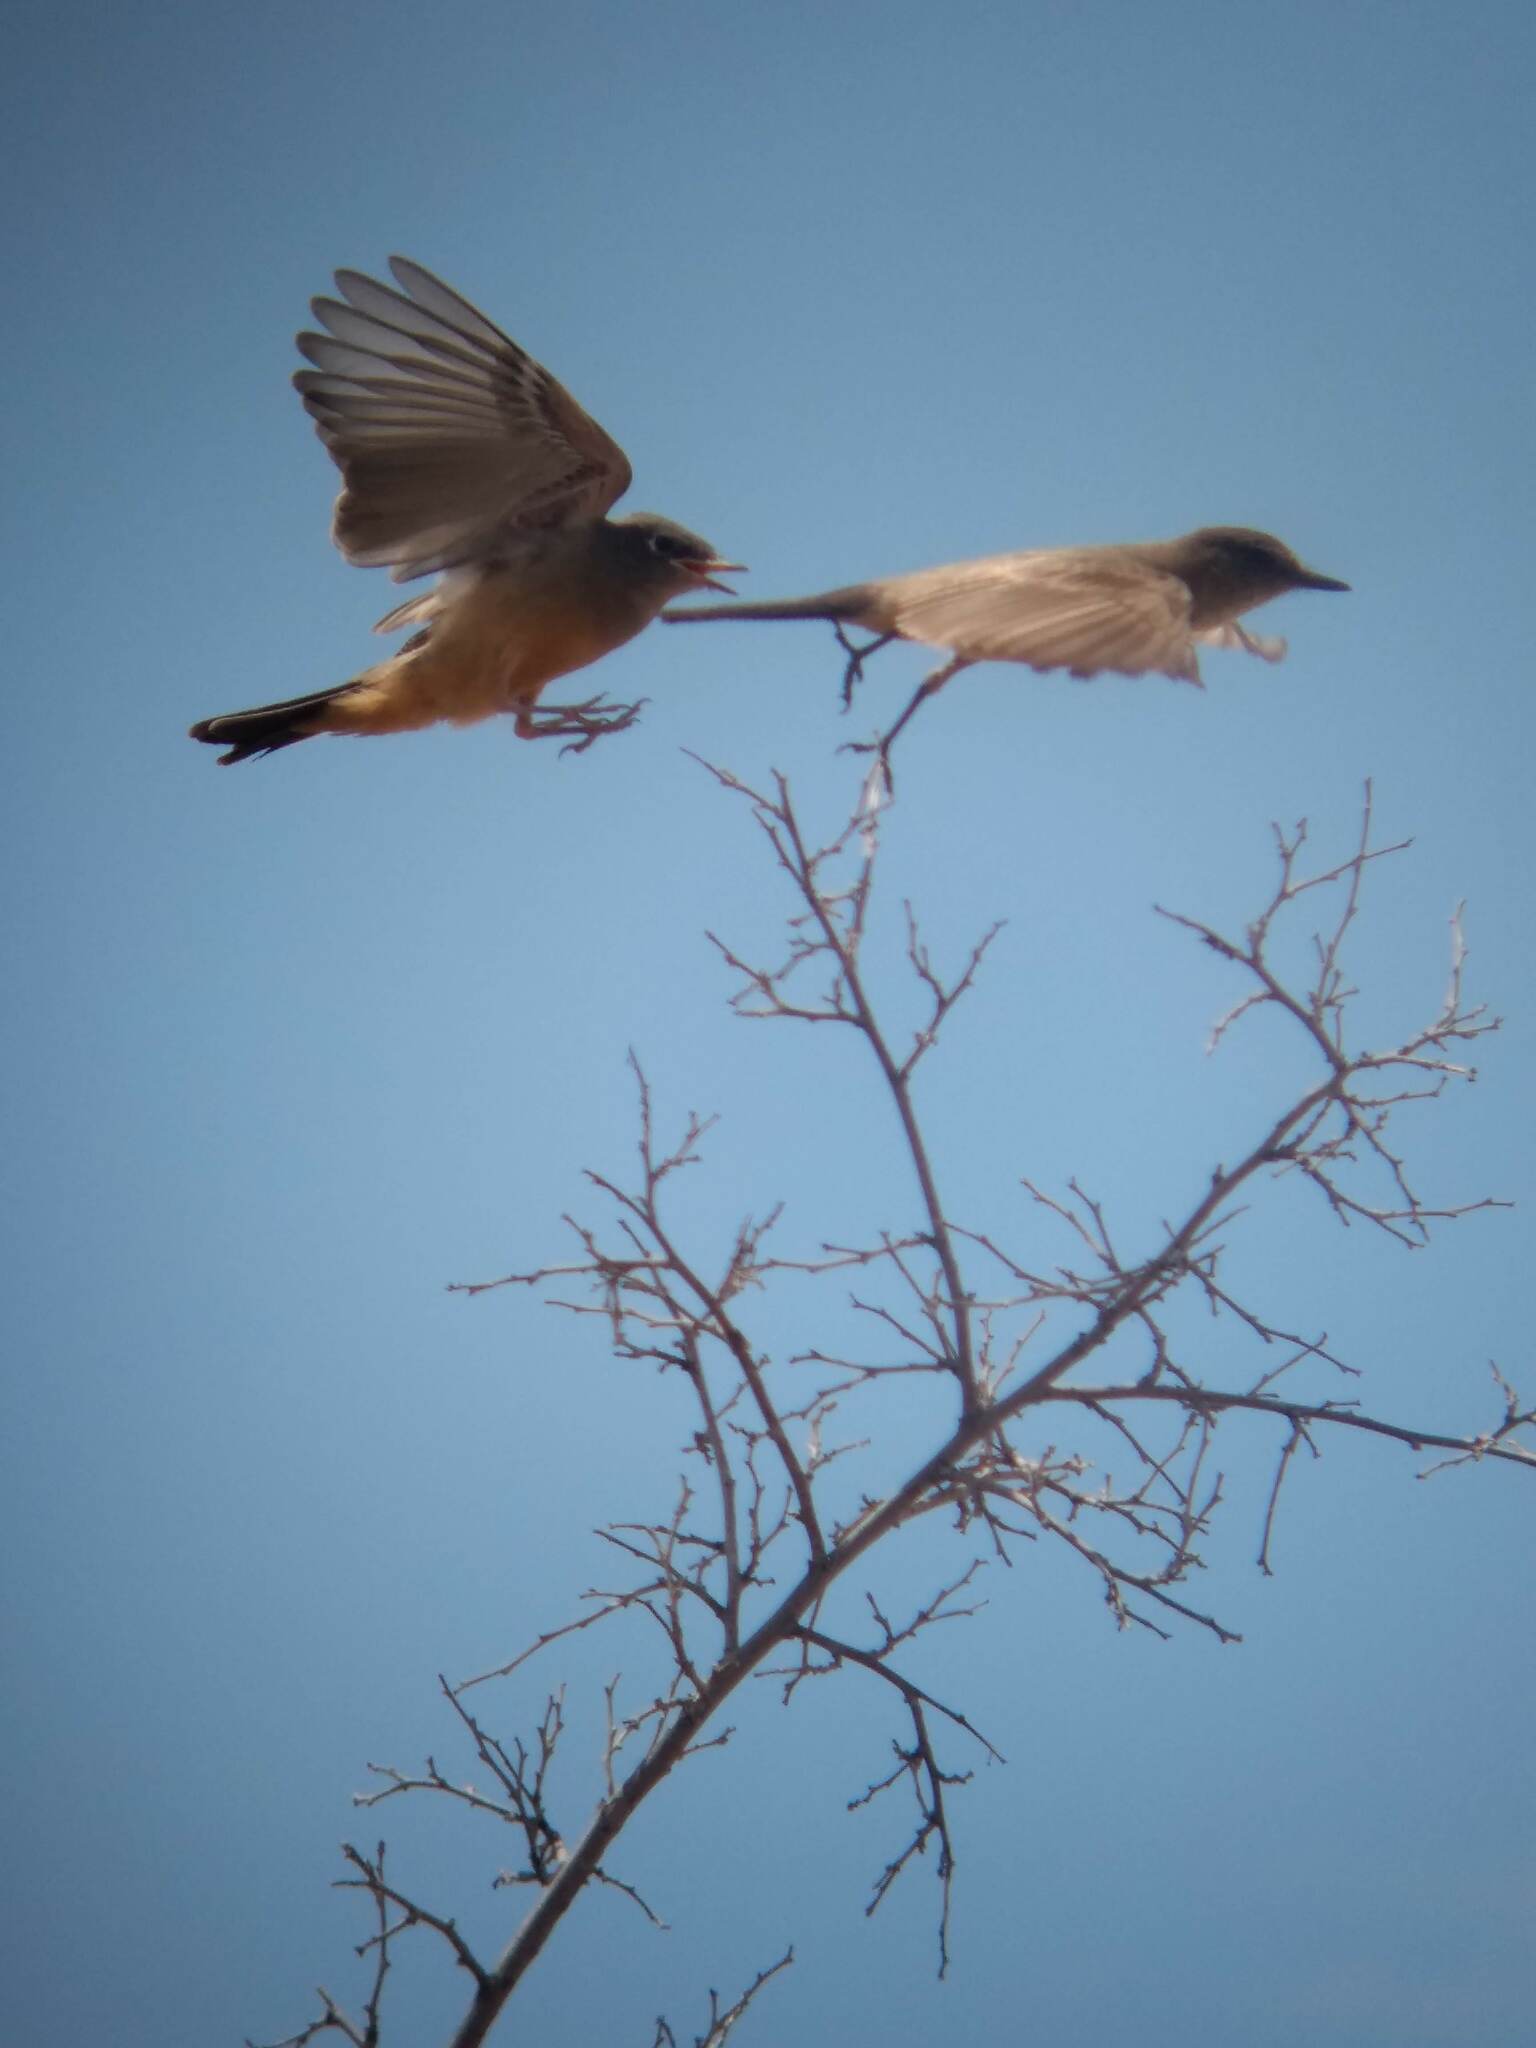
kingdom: Animalia
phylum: Chordata
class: Aves
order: Passeriformes
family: Tyrannidae
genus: Sayornis
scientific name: Sayornis saya
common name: Say's phoebe
